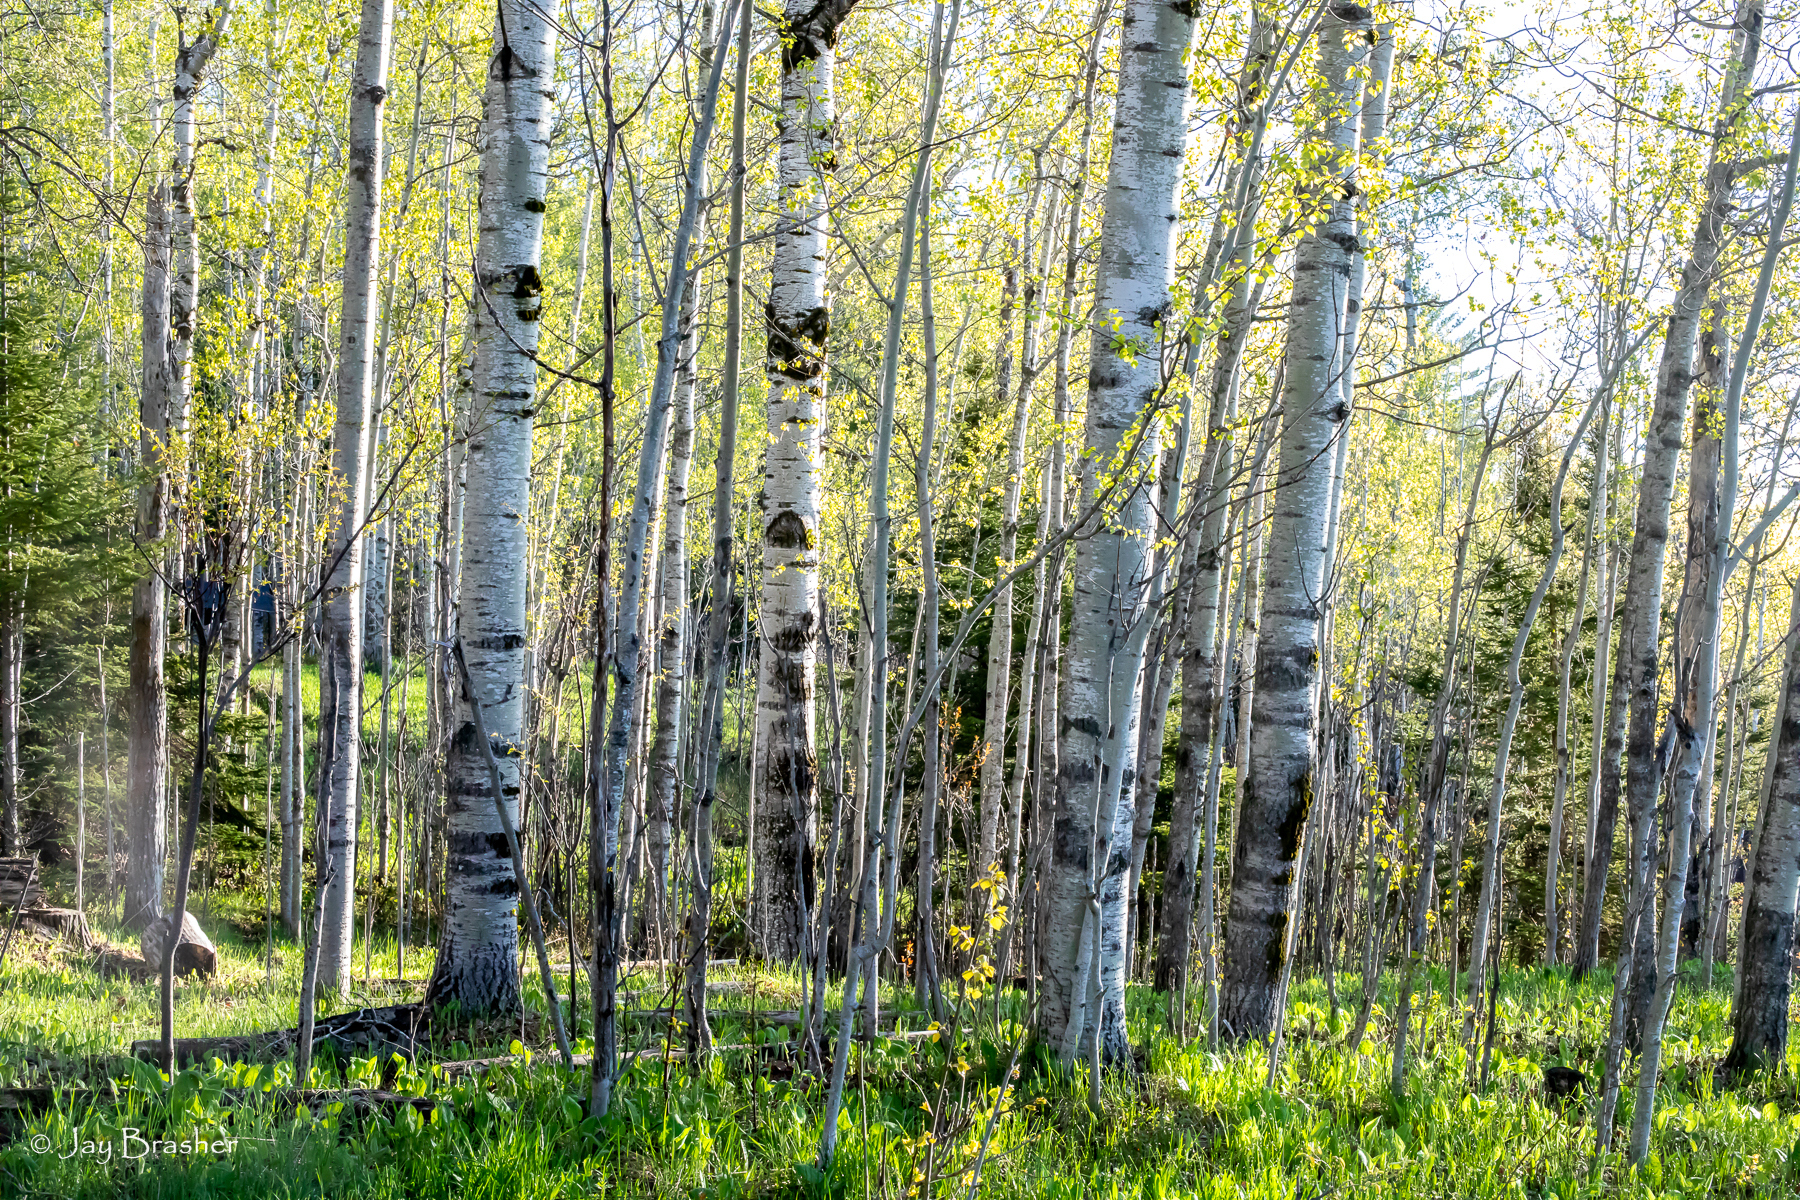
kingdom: Plantae
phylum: Tracheophyta
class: Magnoliopsida
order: Malpighiales
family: Salicaceae
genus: Populus
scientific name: Populus tremuloides
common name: Quaking aspen
